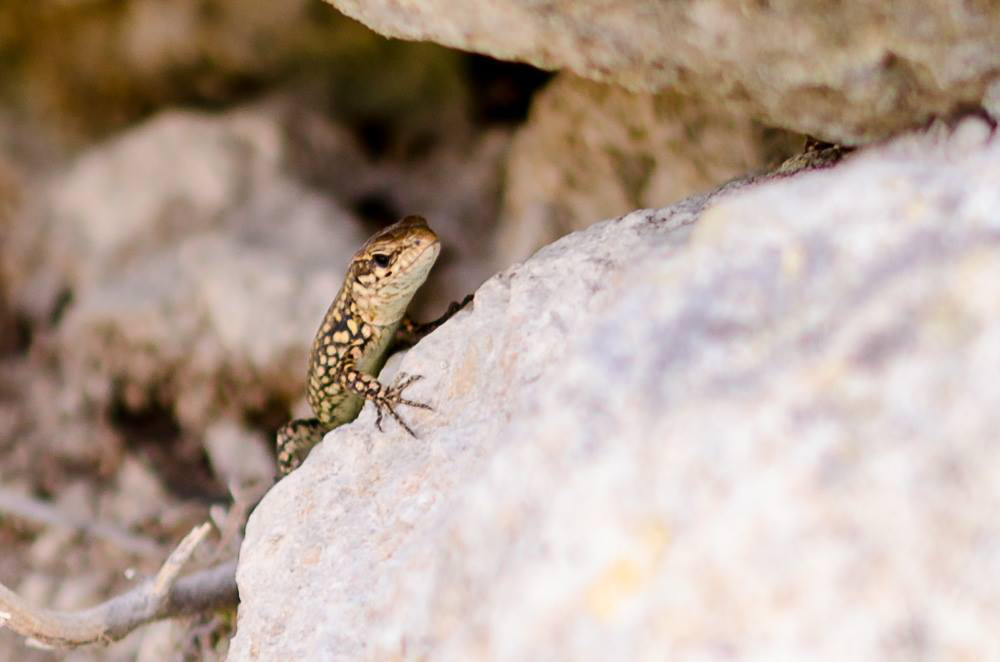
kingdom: Animalia
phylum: Chordata
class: Squamata
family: Lacertidae
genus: Podarcis
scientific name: Podarcis muralis
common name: Common wall lizard
